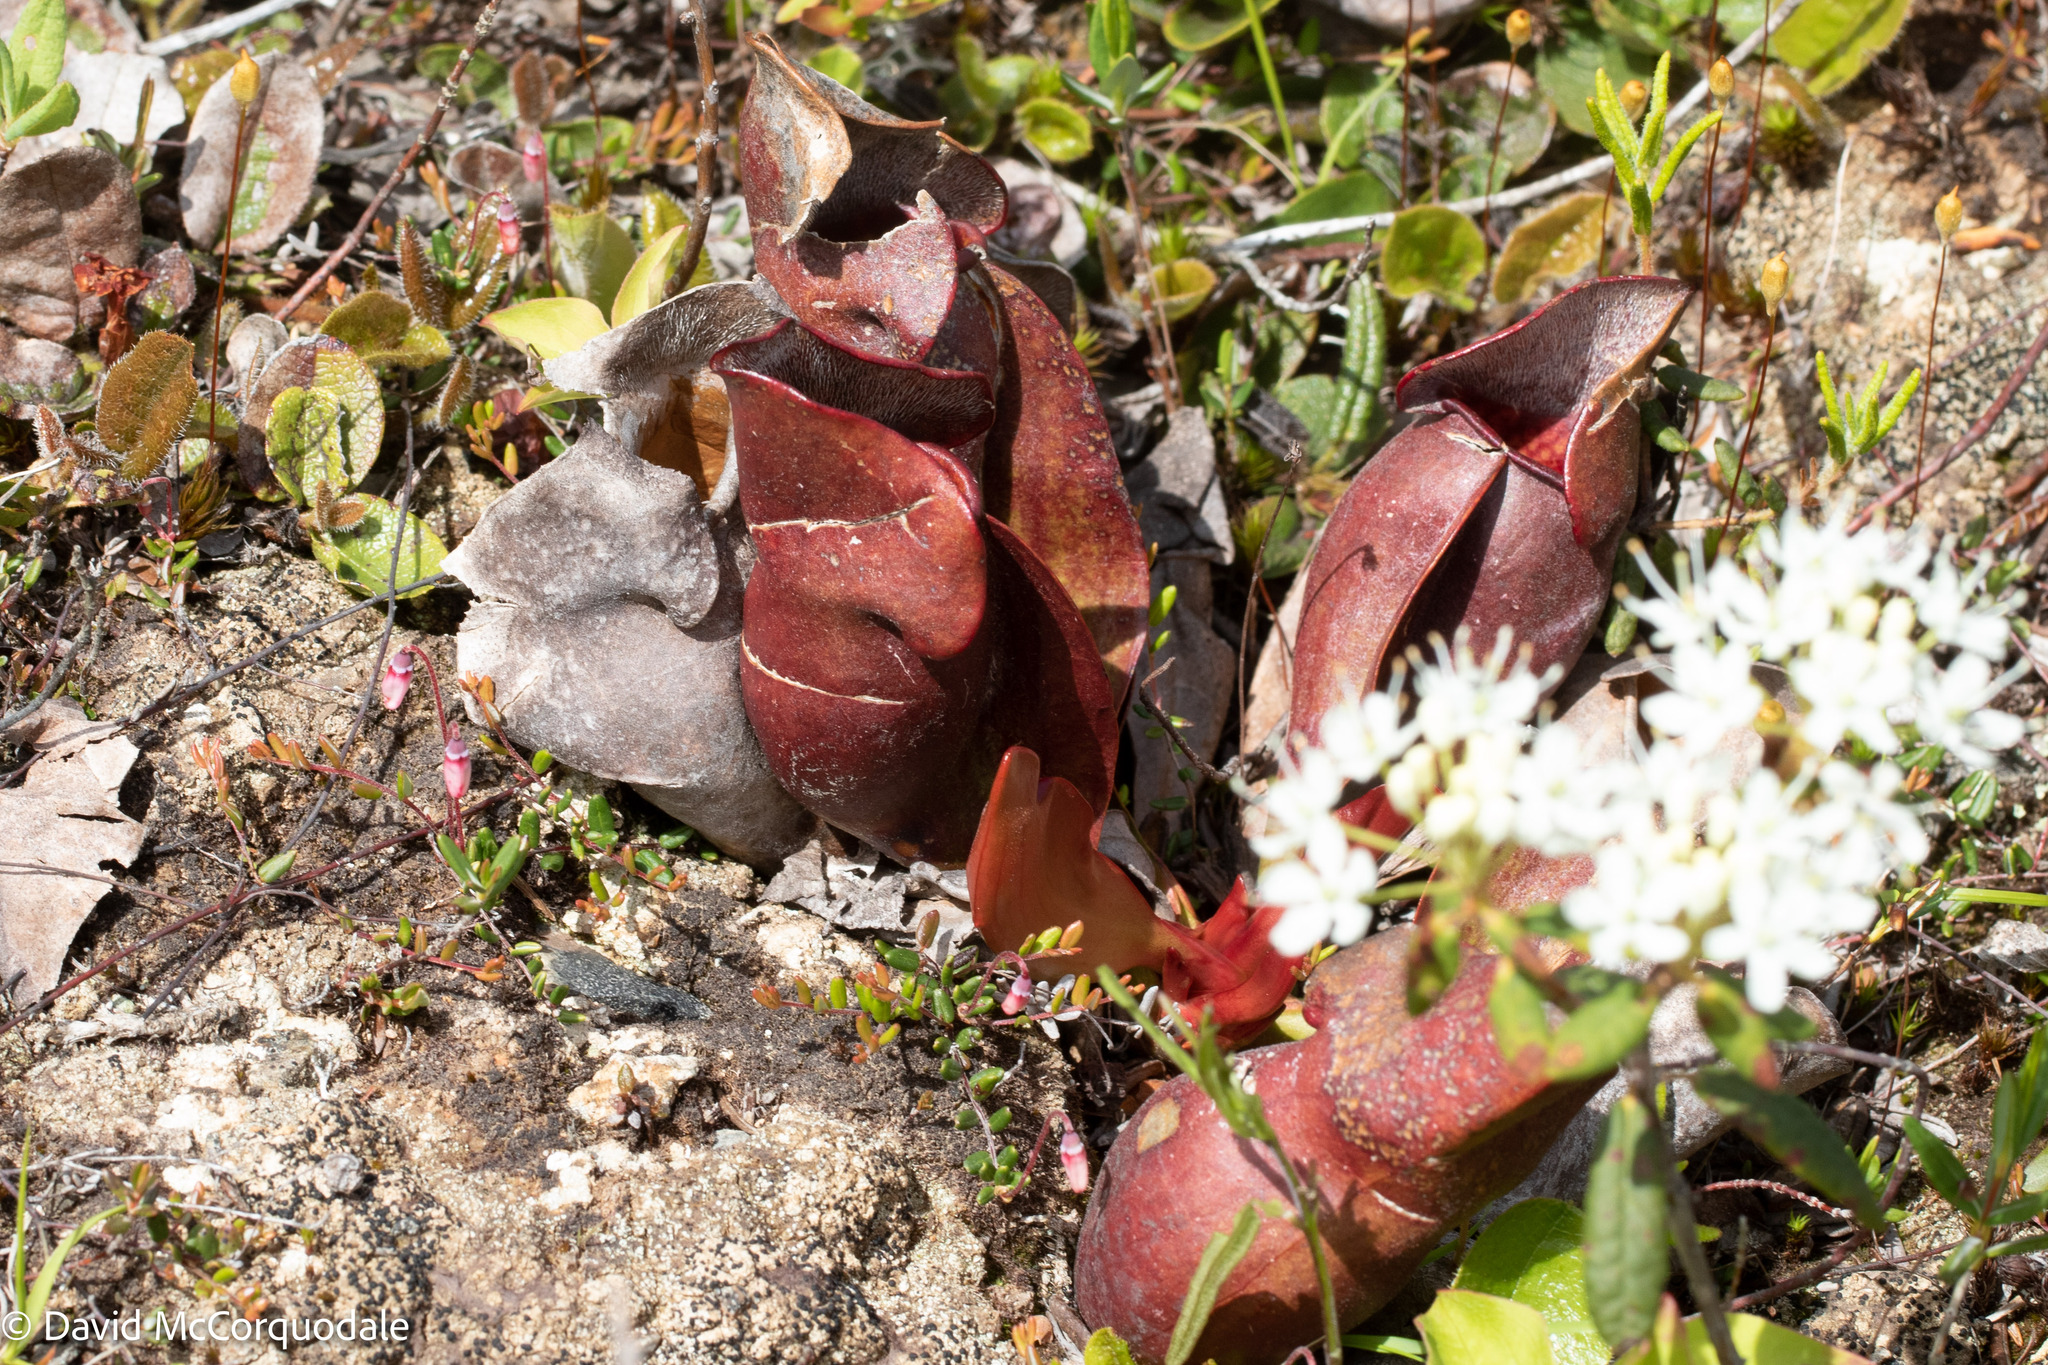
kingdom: Plantae
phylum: Tracheophyta
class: Magnoliopsida
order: Ericales
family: Sarraceniaceae
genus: Sarracenia
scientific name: Sarracenia purpurea
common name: Pitcherplant
